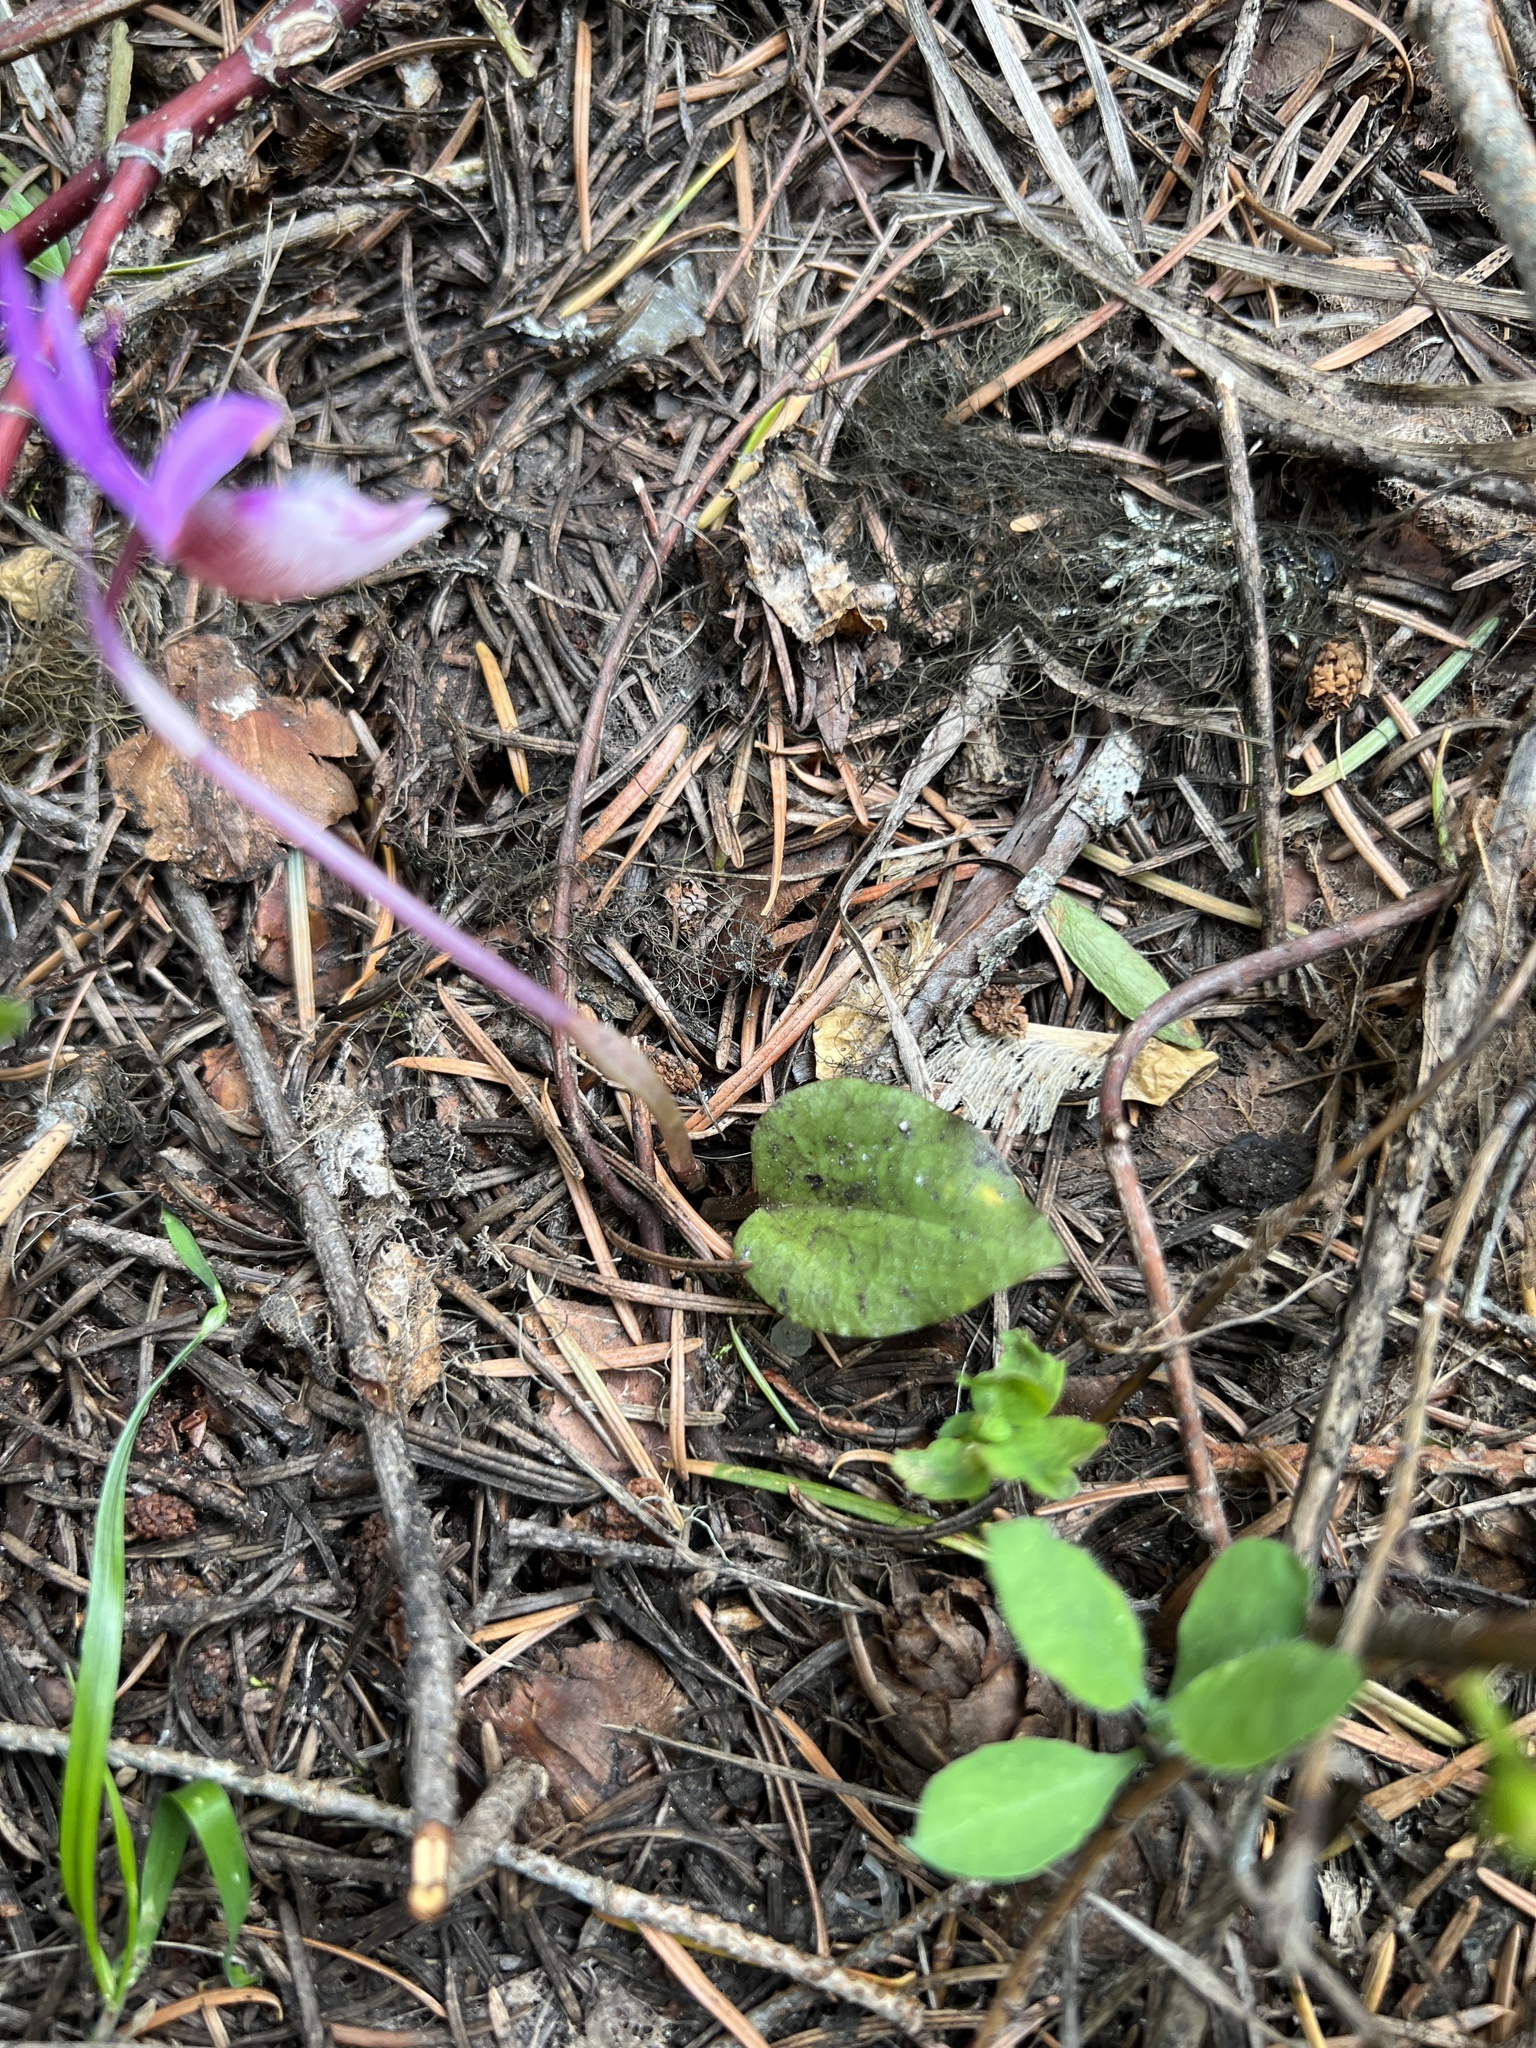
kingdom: Plantae
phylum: Tracheophyta
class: Liliopsida
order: Asparagales
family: Orchidaceae
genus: Calypso
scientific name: Calypso bulbosa
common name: Calypso
